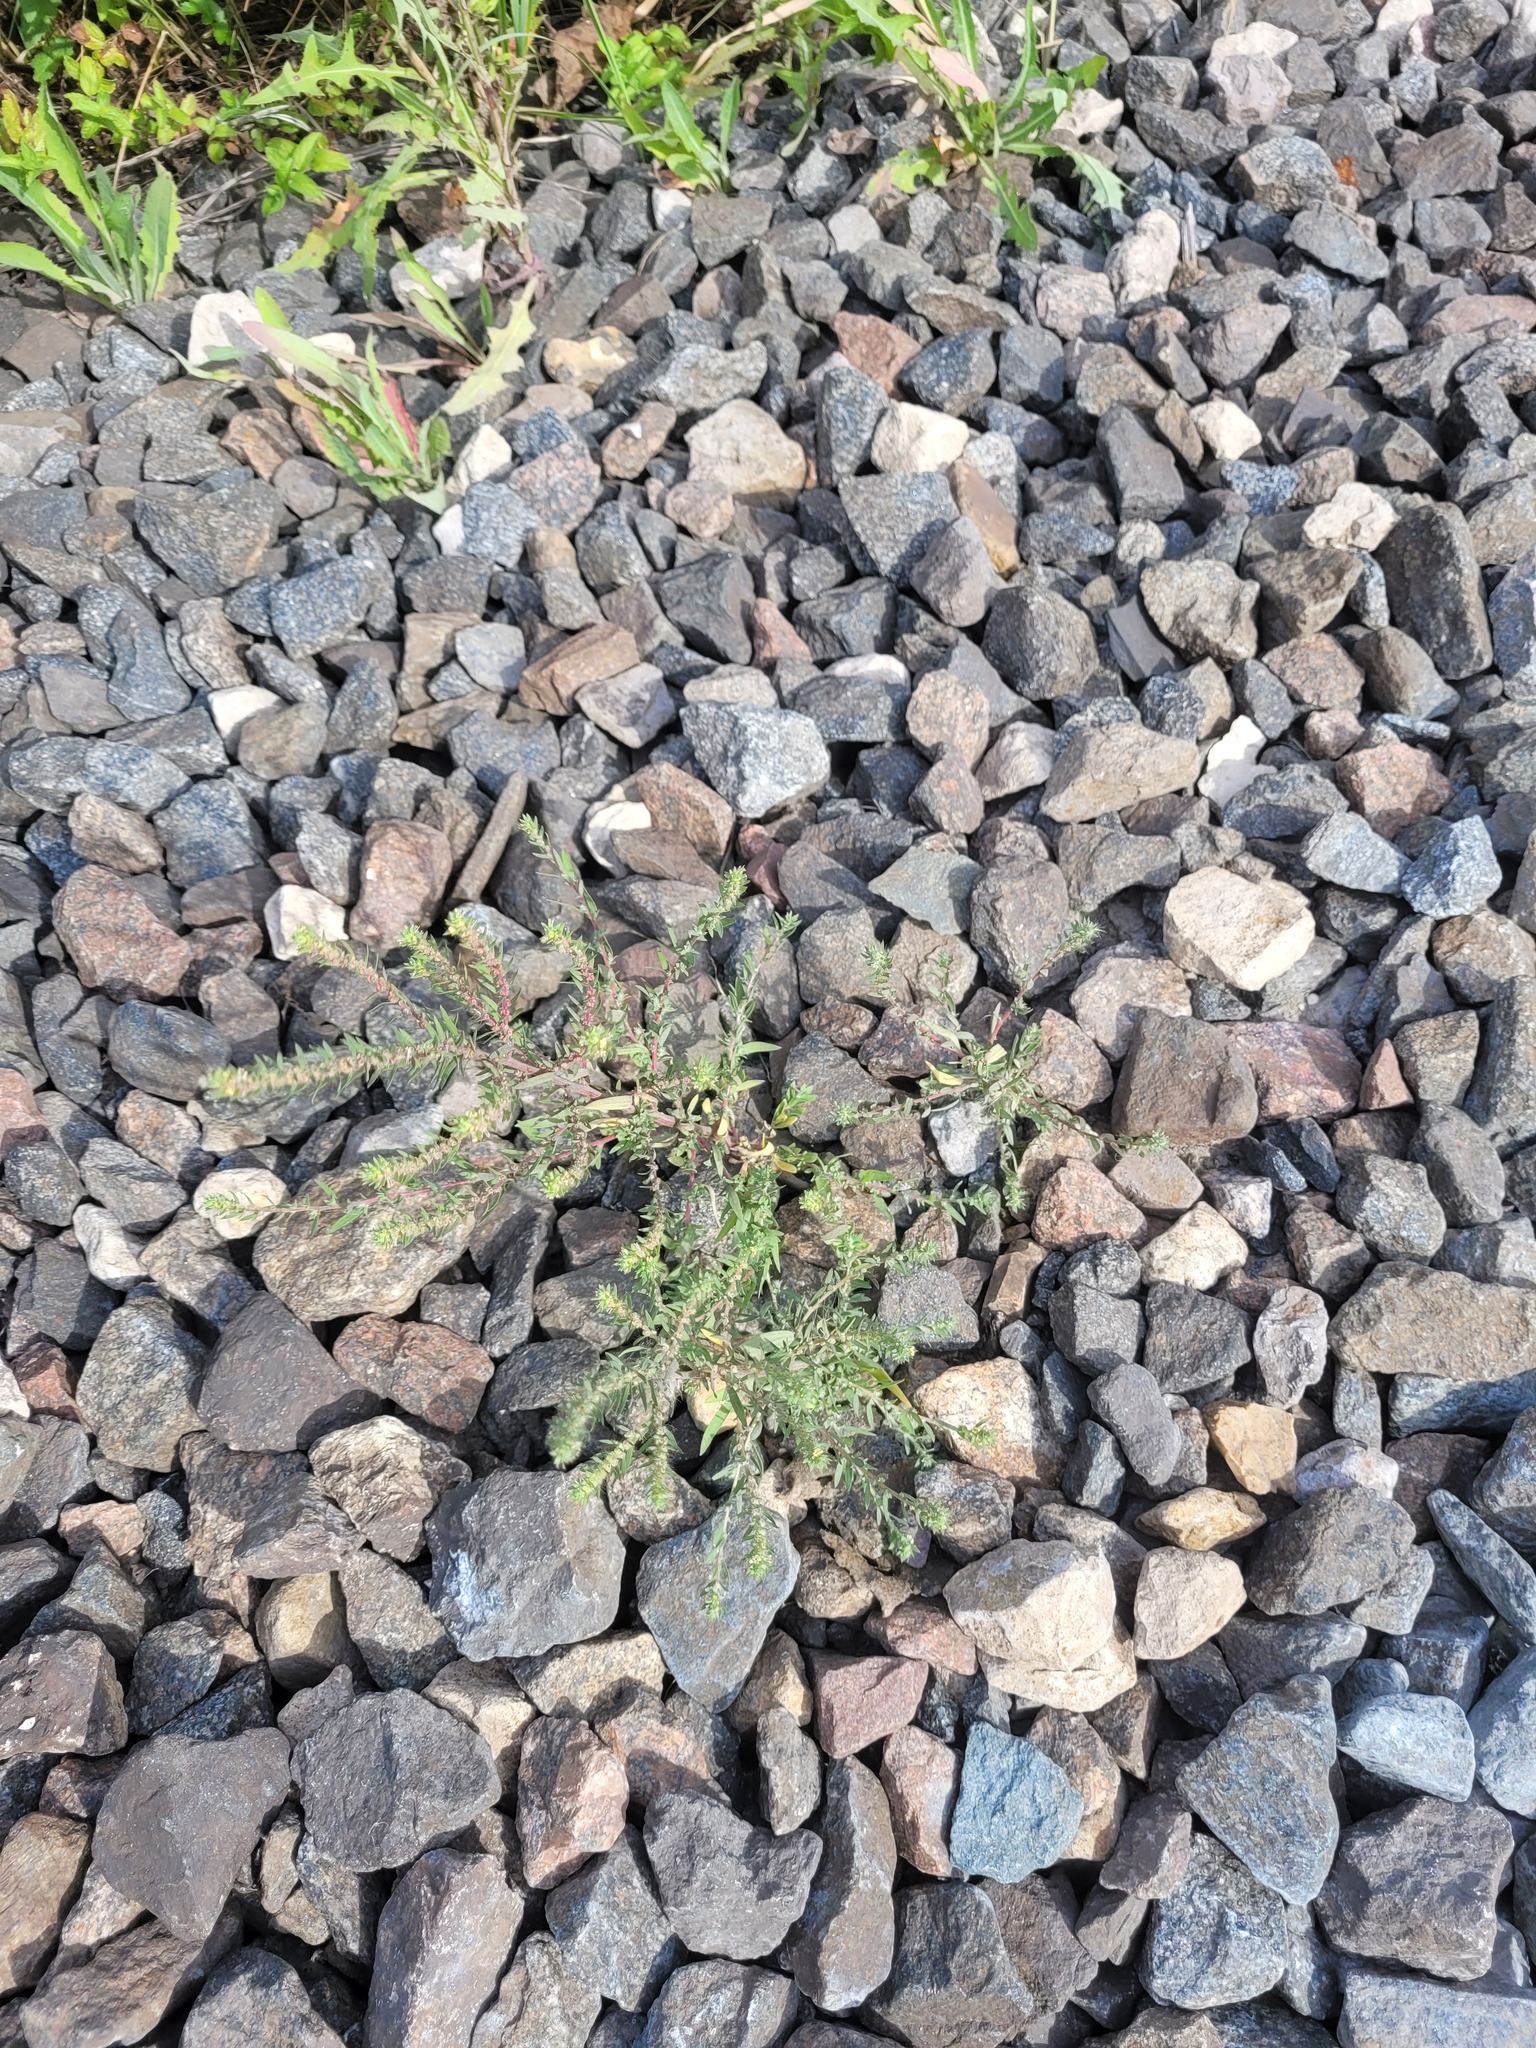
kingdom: Plantae
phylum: Tracheophyta
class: Magnoliopsida
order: Caryophyllales
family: Amaranthaceae
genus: Bassia
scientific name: Bassia scoparia
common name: Belvedere
